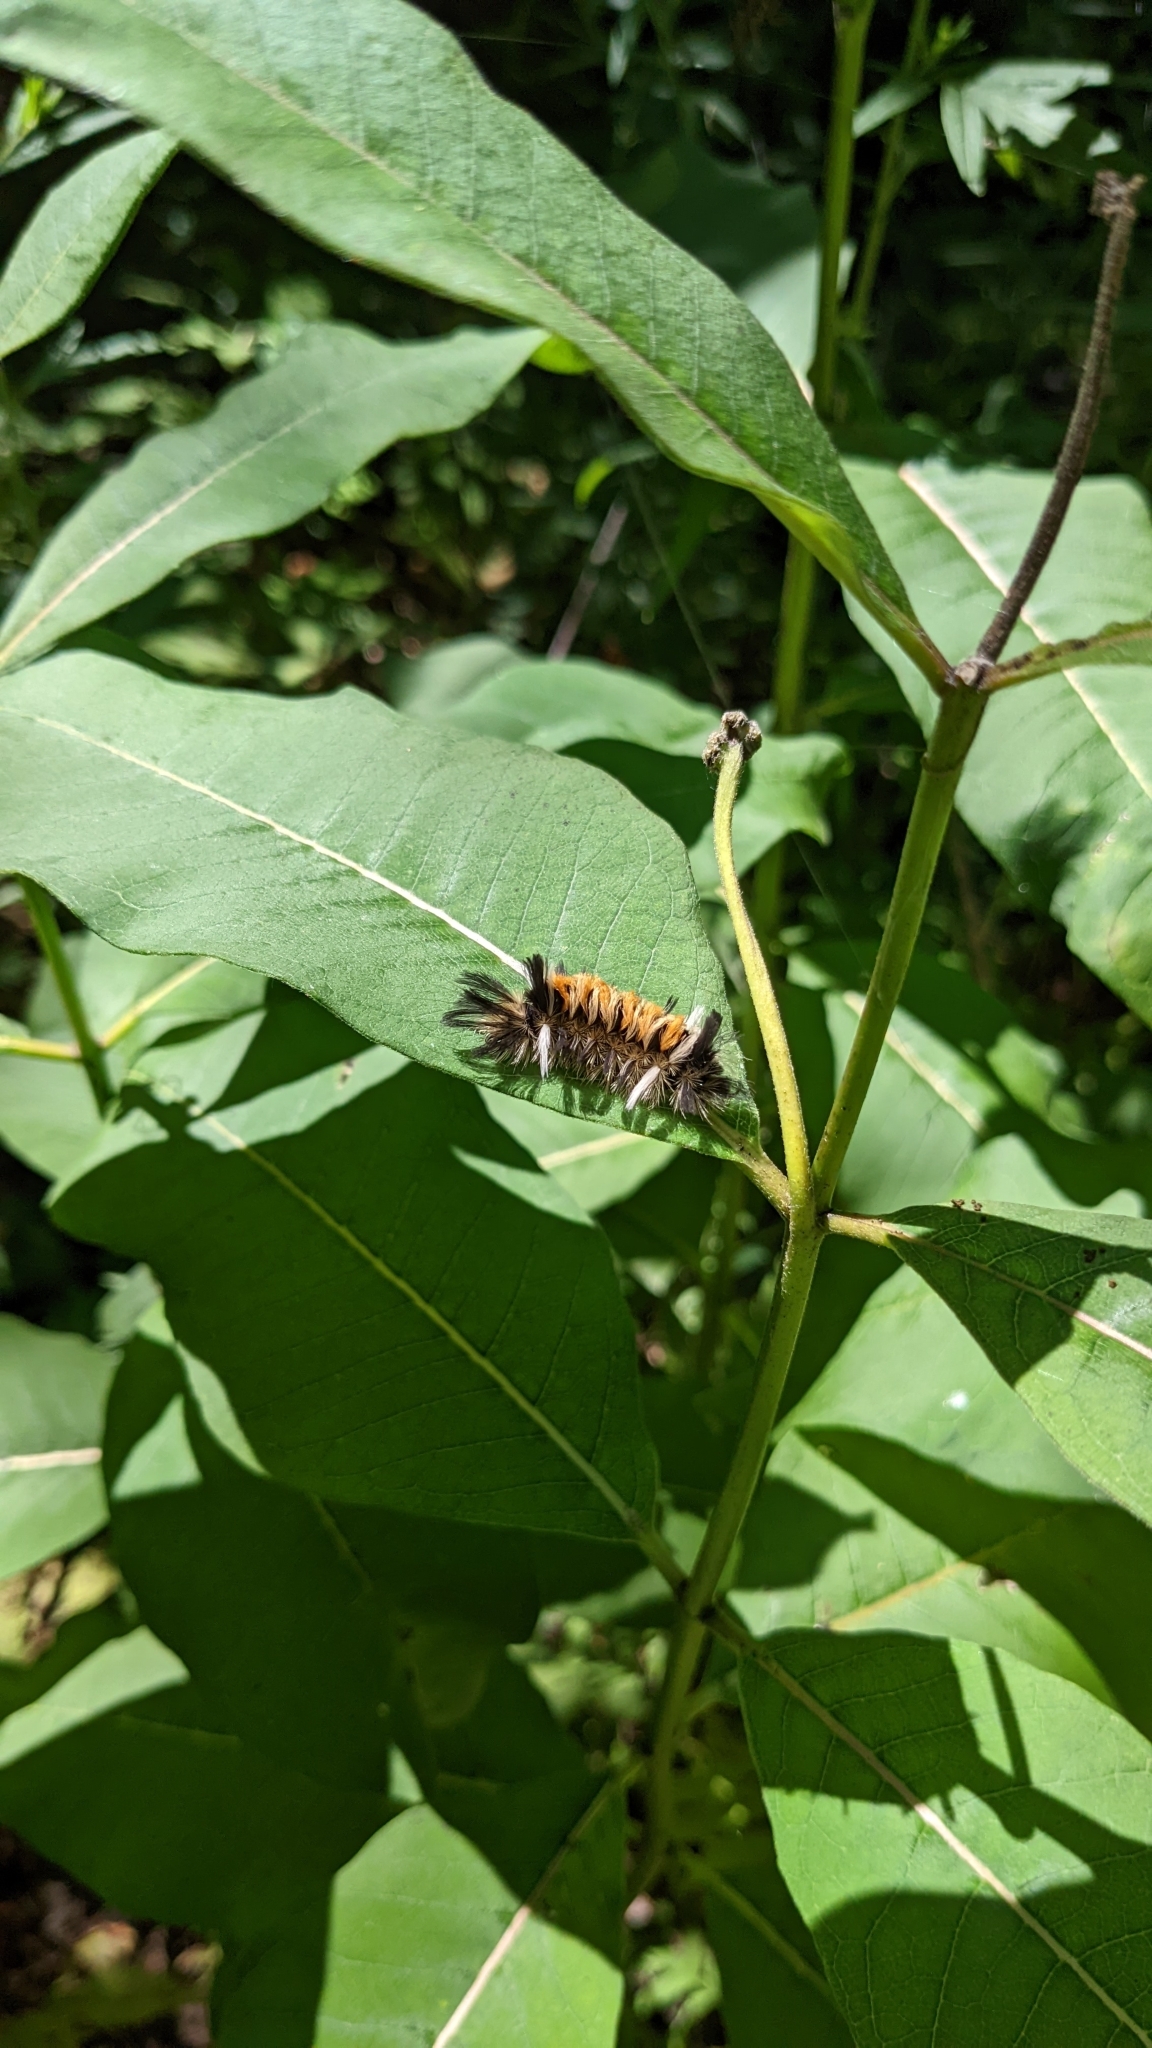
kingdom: Animalia
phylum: Arthropoda
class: Insecta
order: Lepidoptera
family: Erebidae
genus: Euchaetes
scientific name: Euchaetes egle
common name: Milkweed tussock moth
